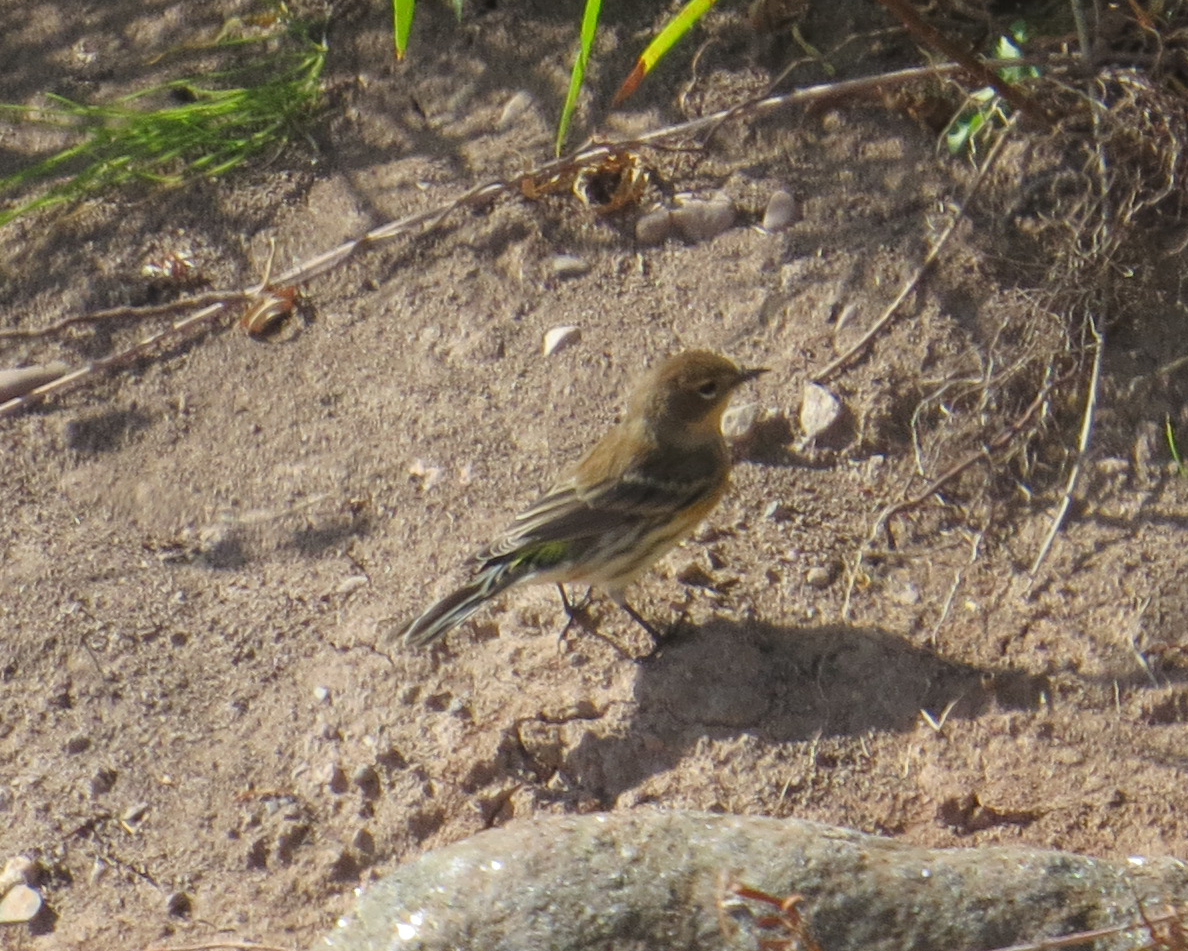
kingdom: Animalia
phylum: Chordata
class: Aves
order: Passeriformes
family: Parulidae
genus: Setophaga
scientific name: Setophaga coronata
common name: Myrtle warbler
